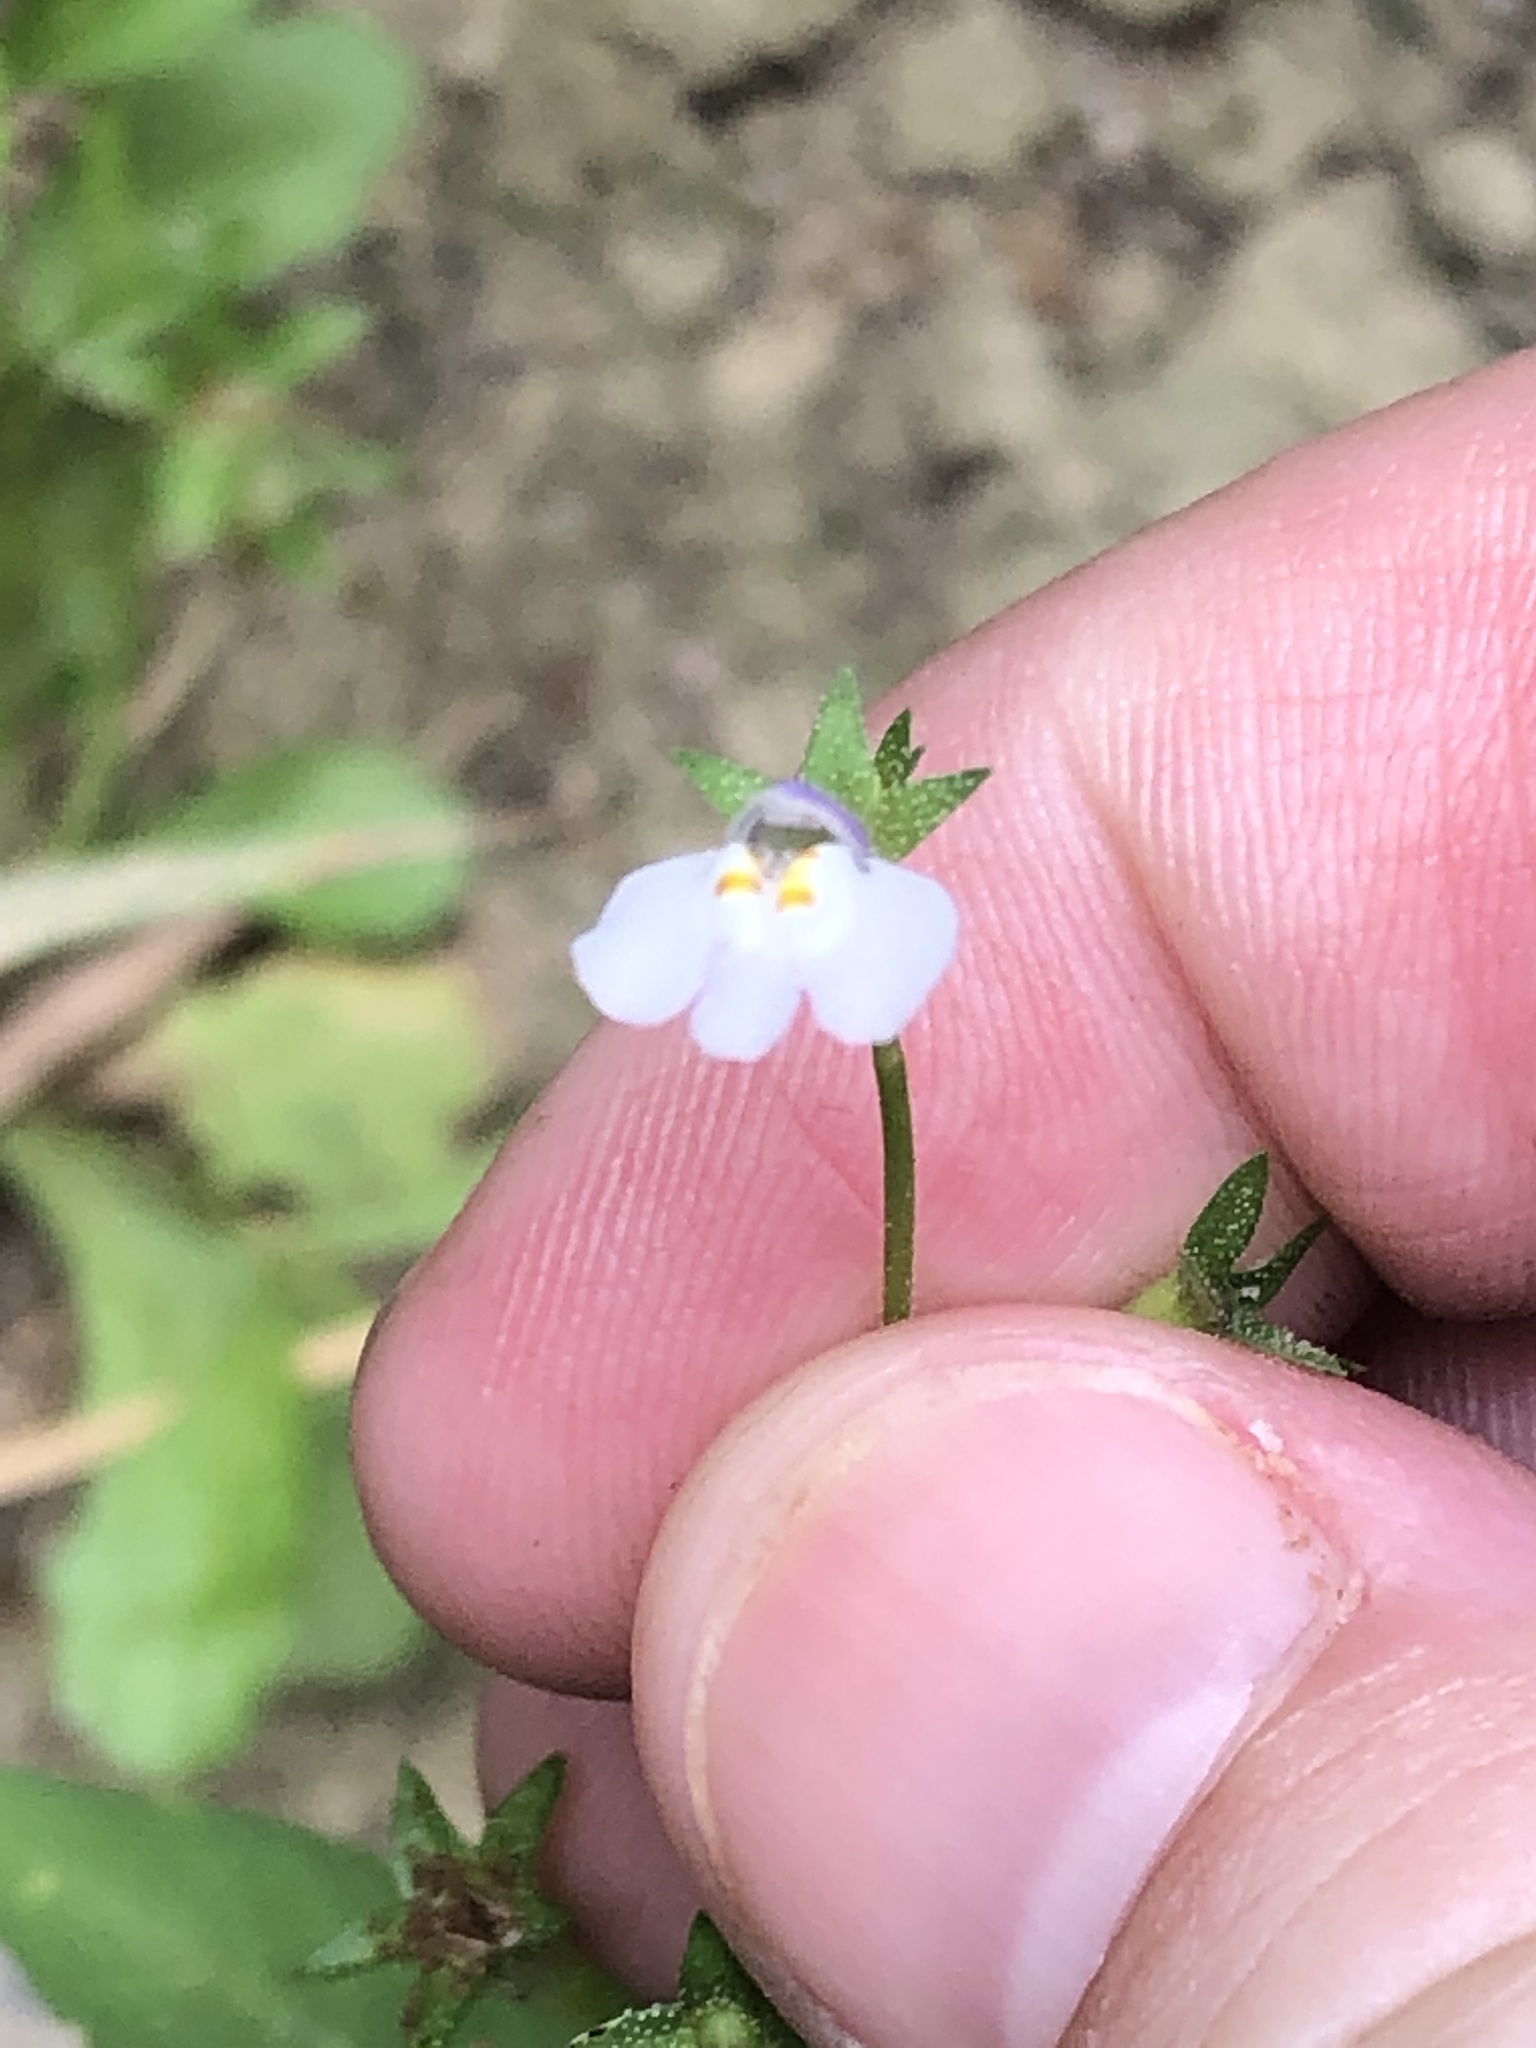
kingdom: Plantae
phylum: Tracheophyta
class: Magnoliopsida
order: Lamiales
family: Mazaceae
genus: Mazus
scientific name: Mazus pumilus
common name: Japanese mazus
